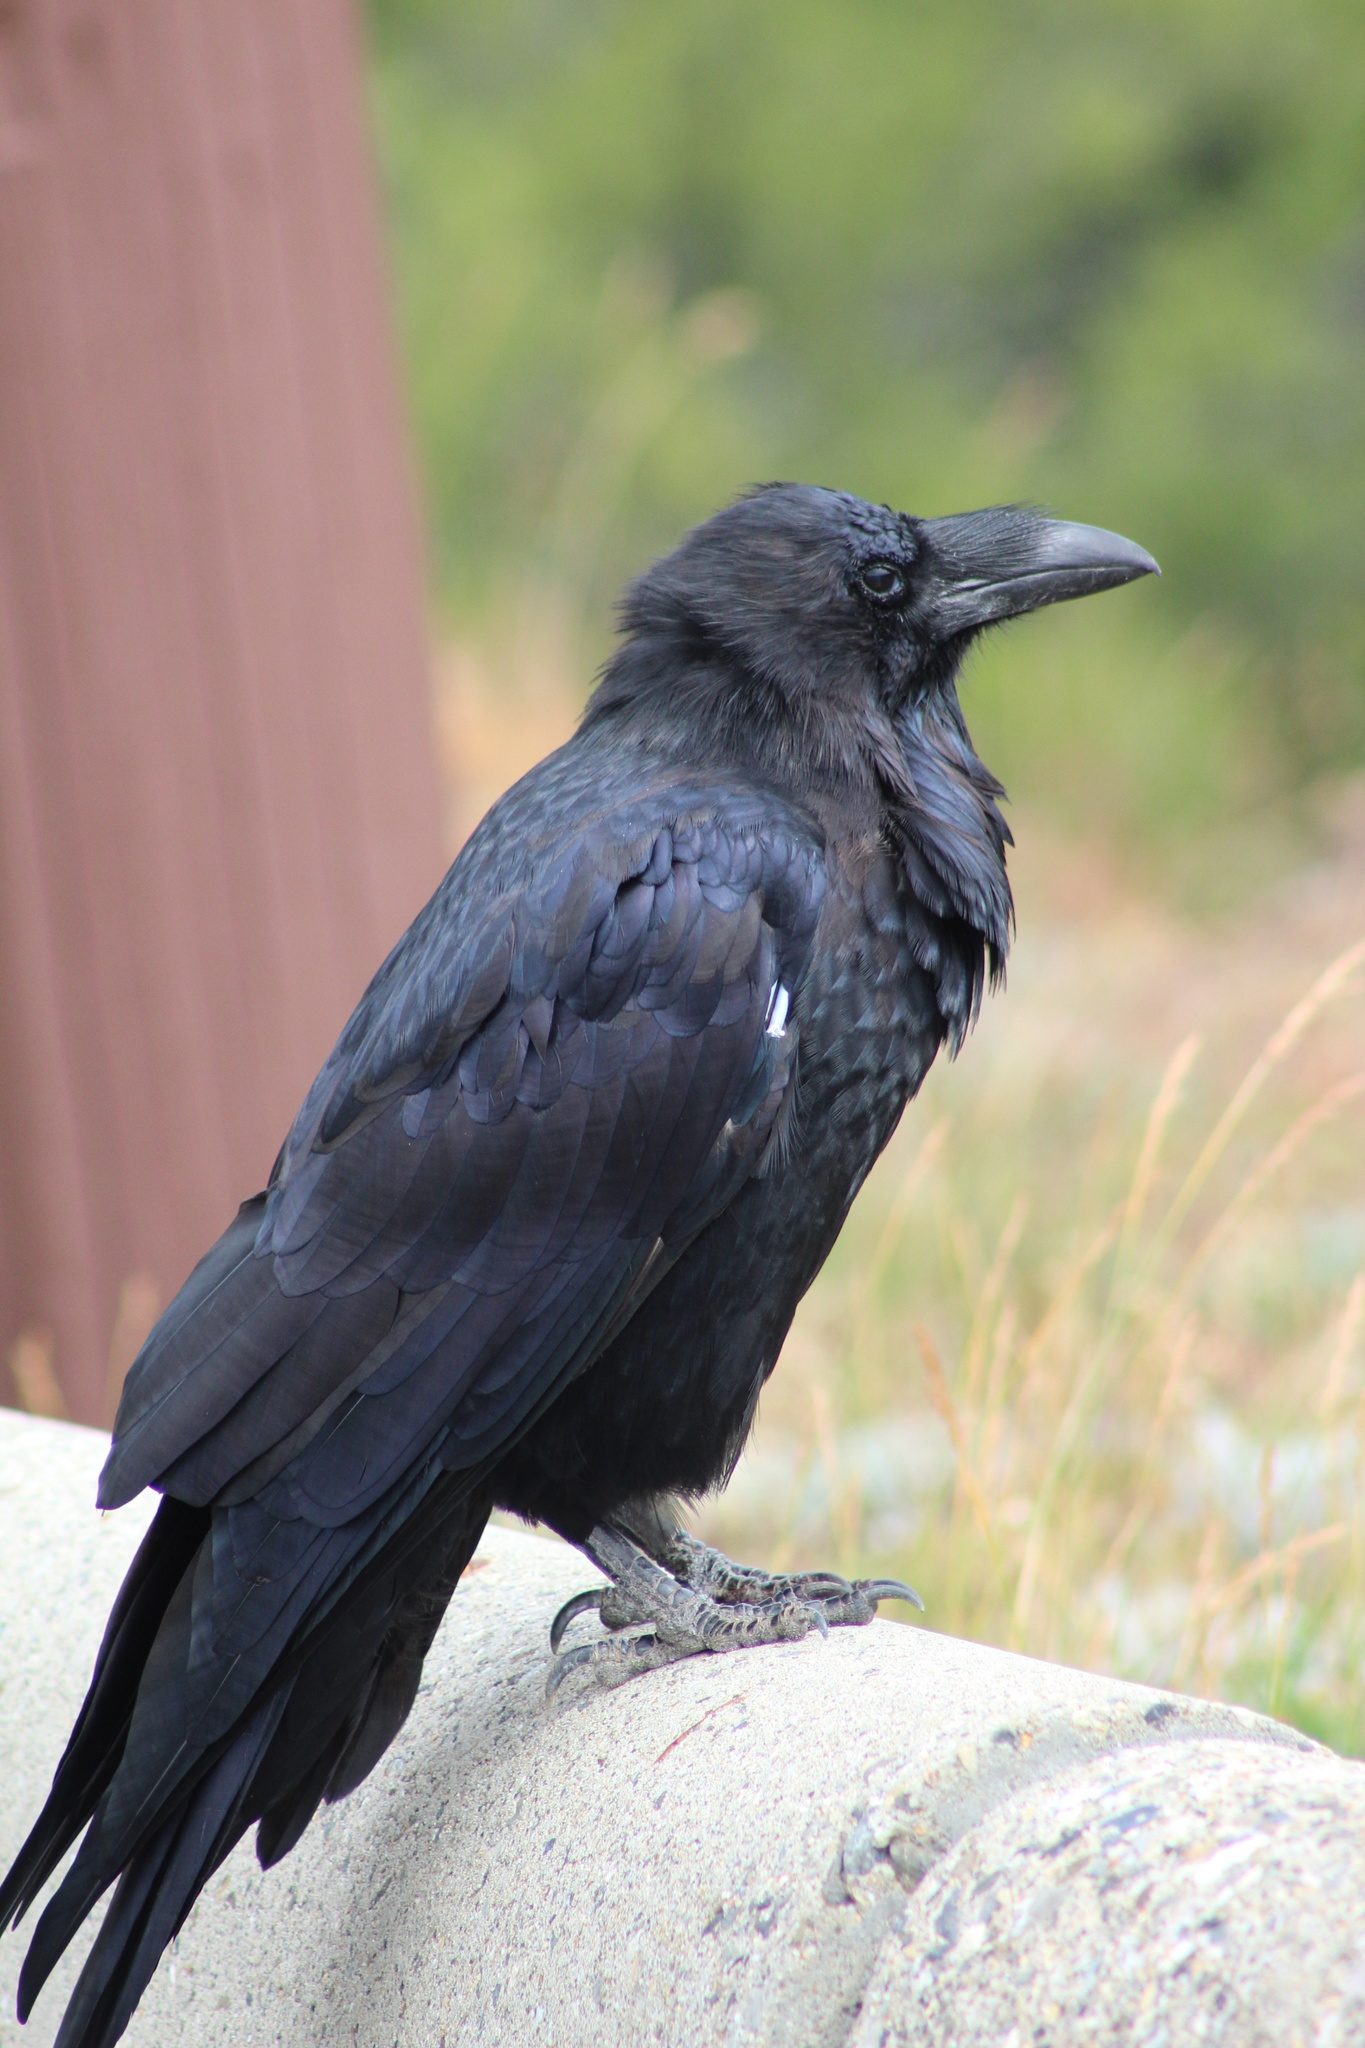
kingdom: Animalia
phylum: Chordata
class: Aves
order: Passeriformes
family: Corvidae
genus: Corvus
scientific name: Corvus corax
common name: Common raven
